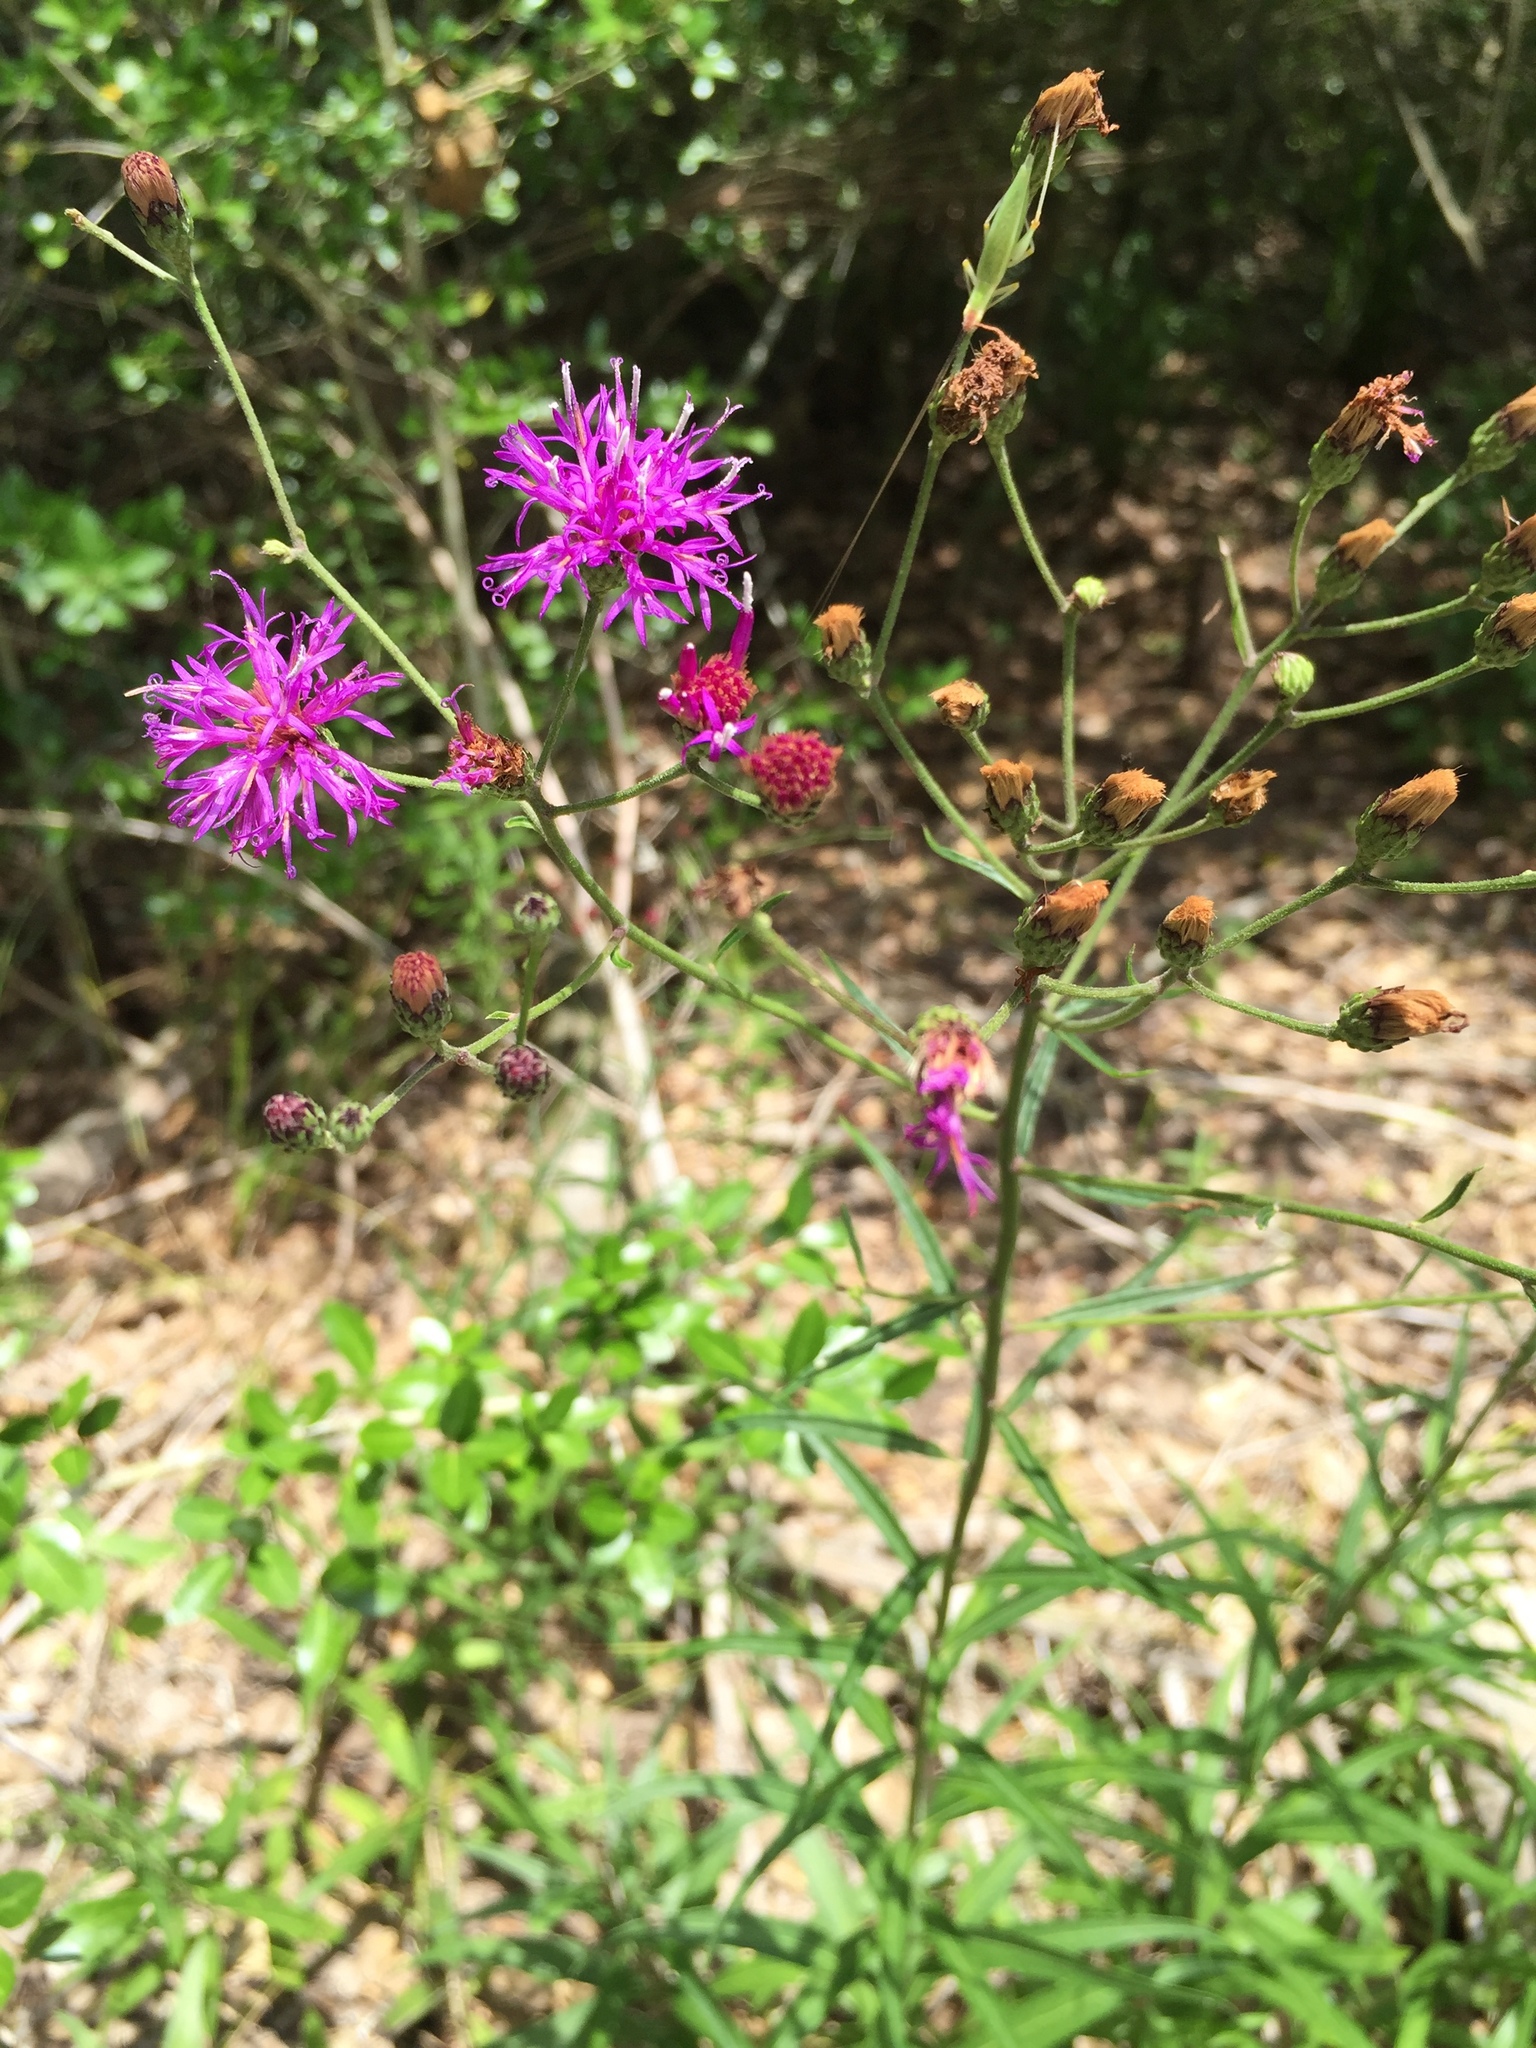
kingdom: Plantae
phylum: Tracheophyta
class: Magnoliopsida
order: Asterales
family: Asteraceae
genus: Vernonia
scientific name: Vernonia texana
